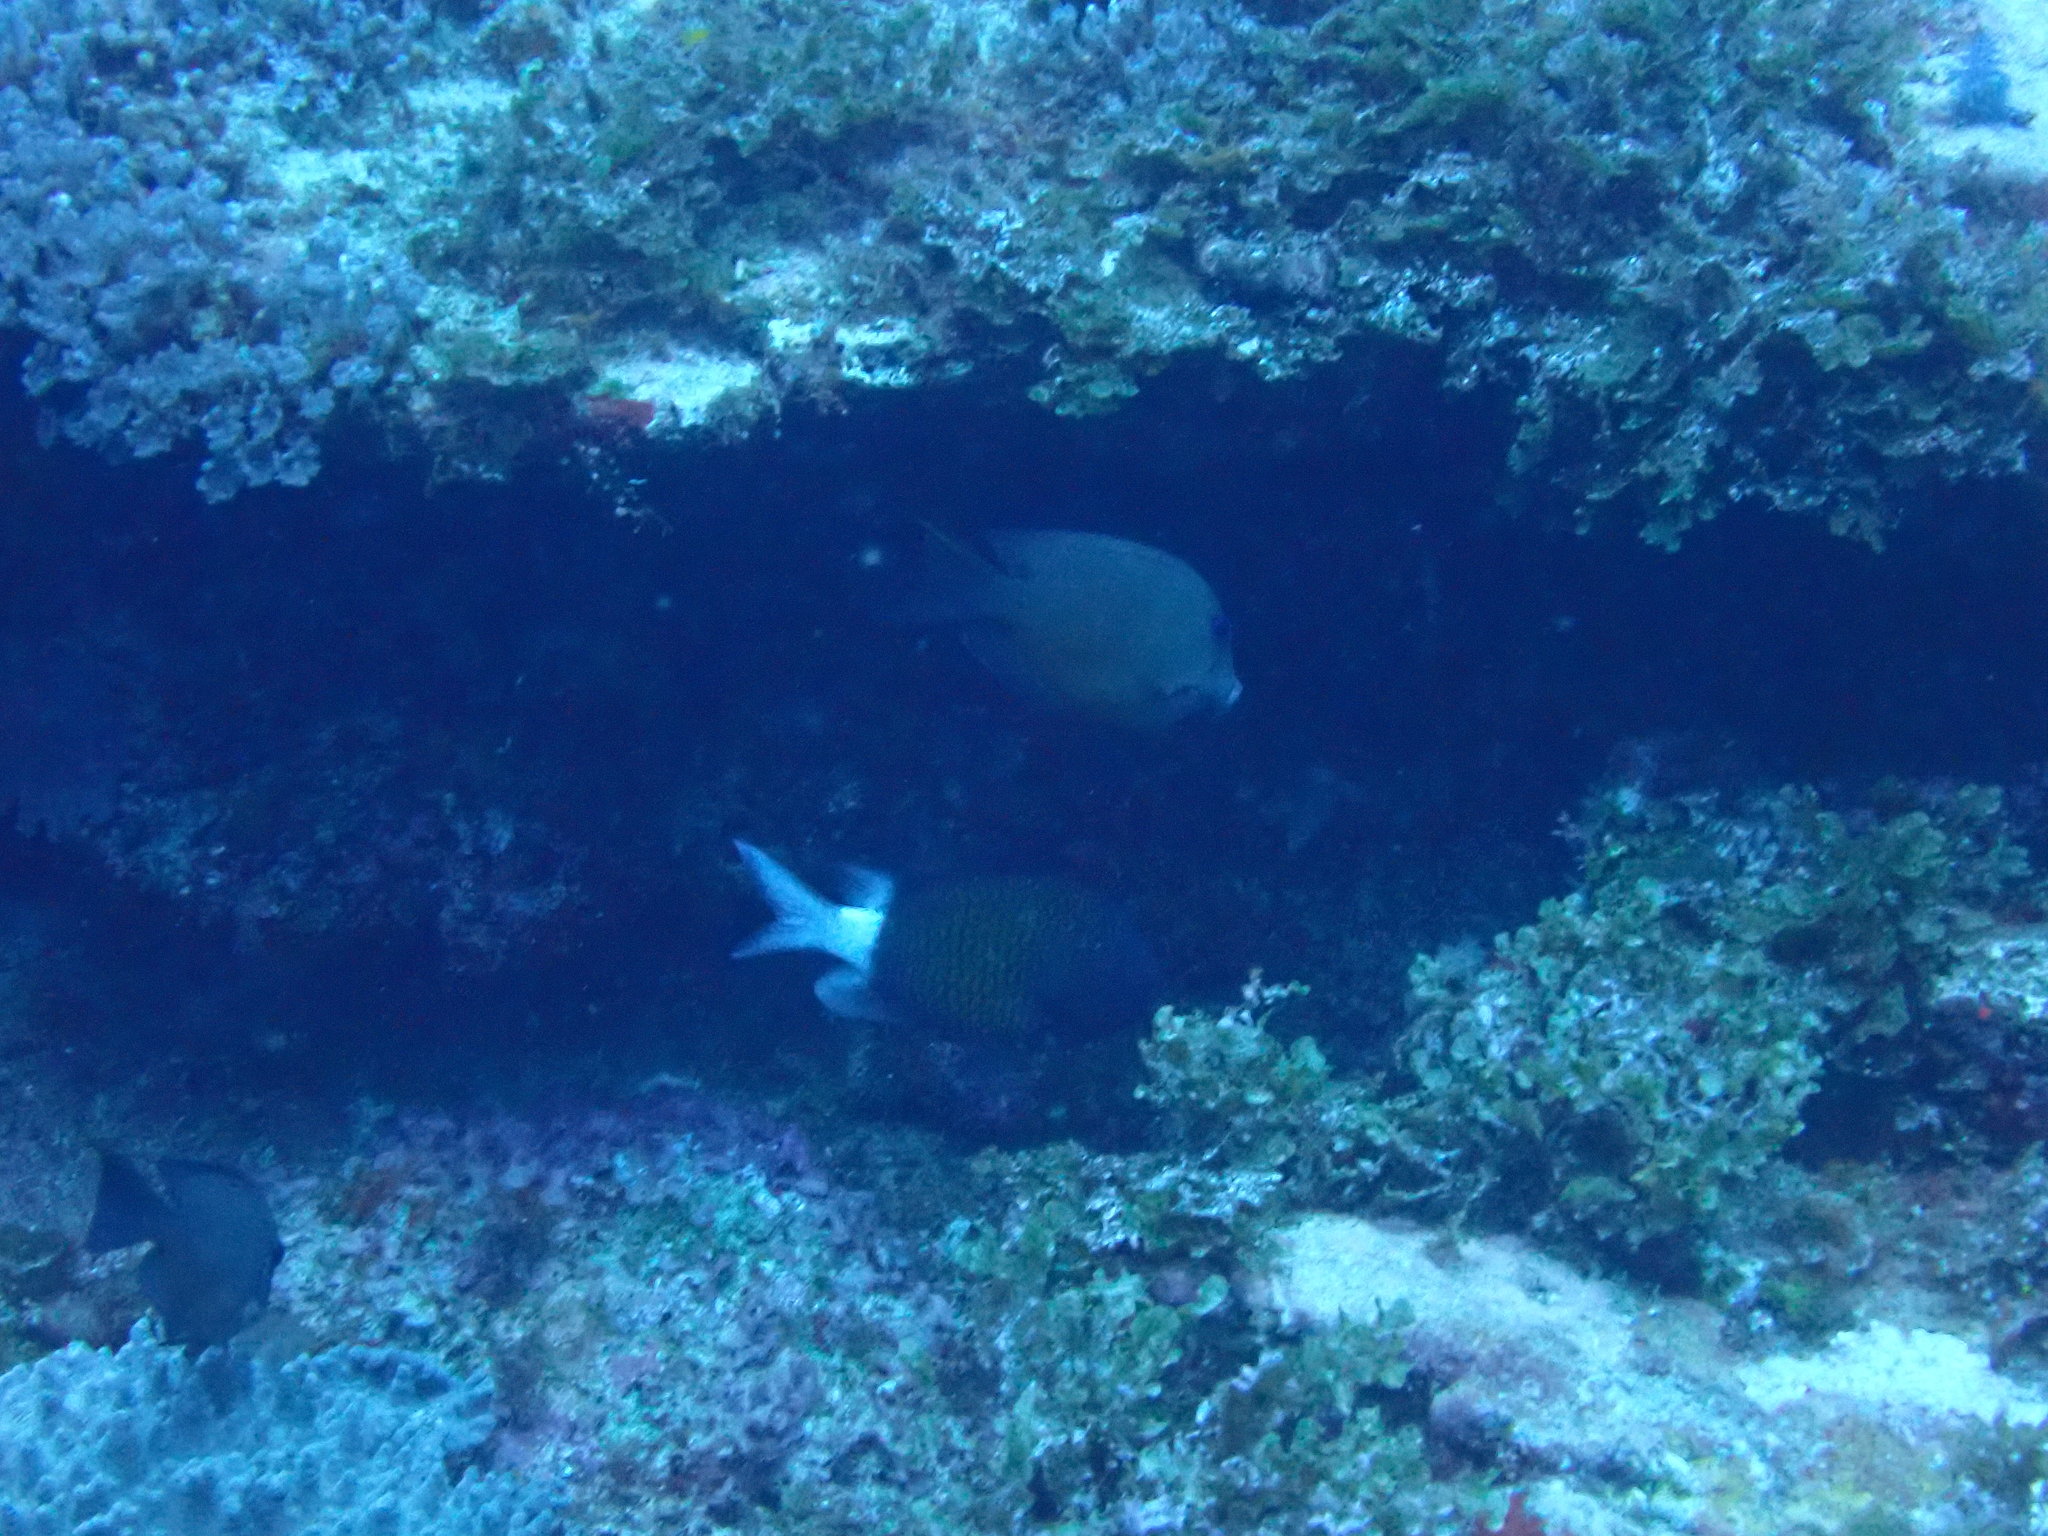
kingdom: Animalia
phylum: Chordata
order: Perciformes
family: Pomacentridae
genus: Chromis
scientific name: Chromis chrysura
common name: Stout-body chromis
